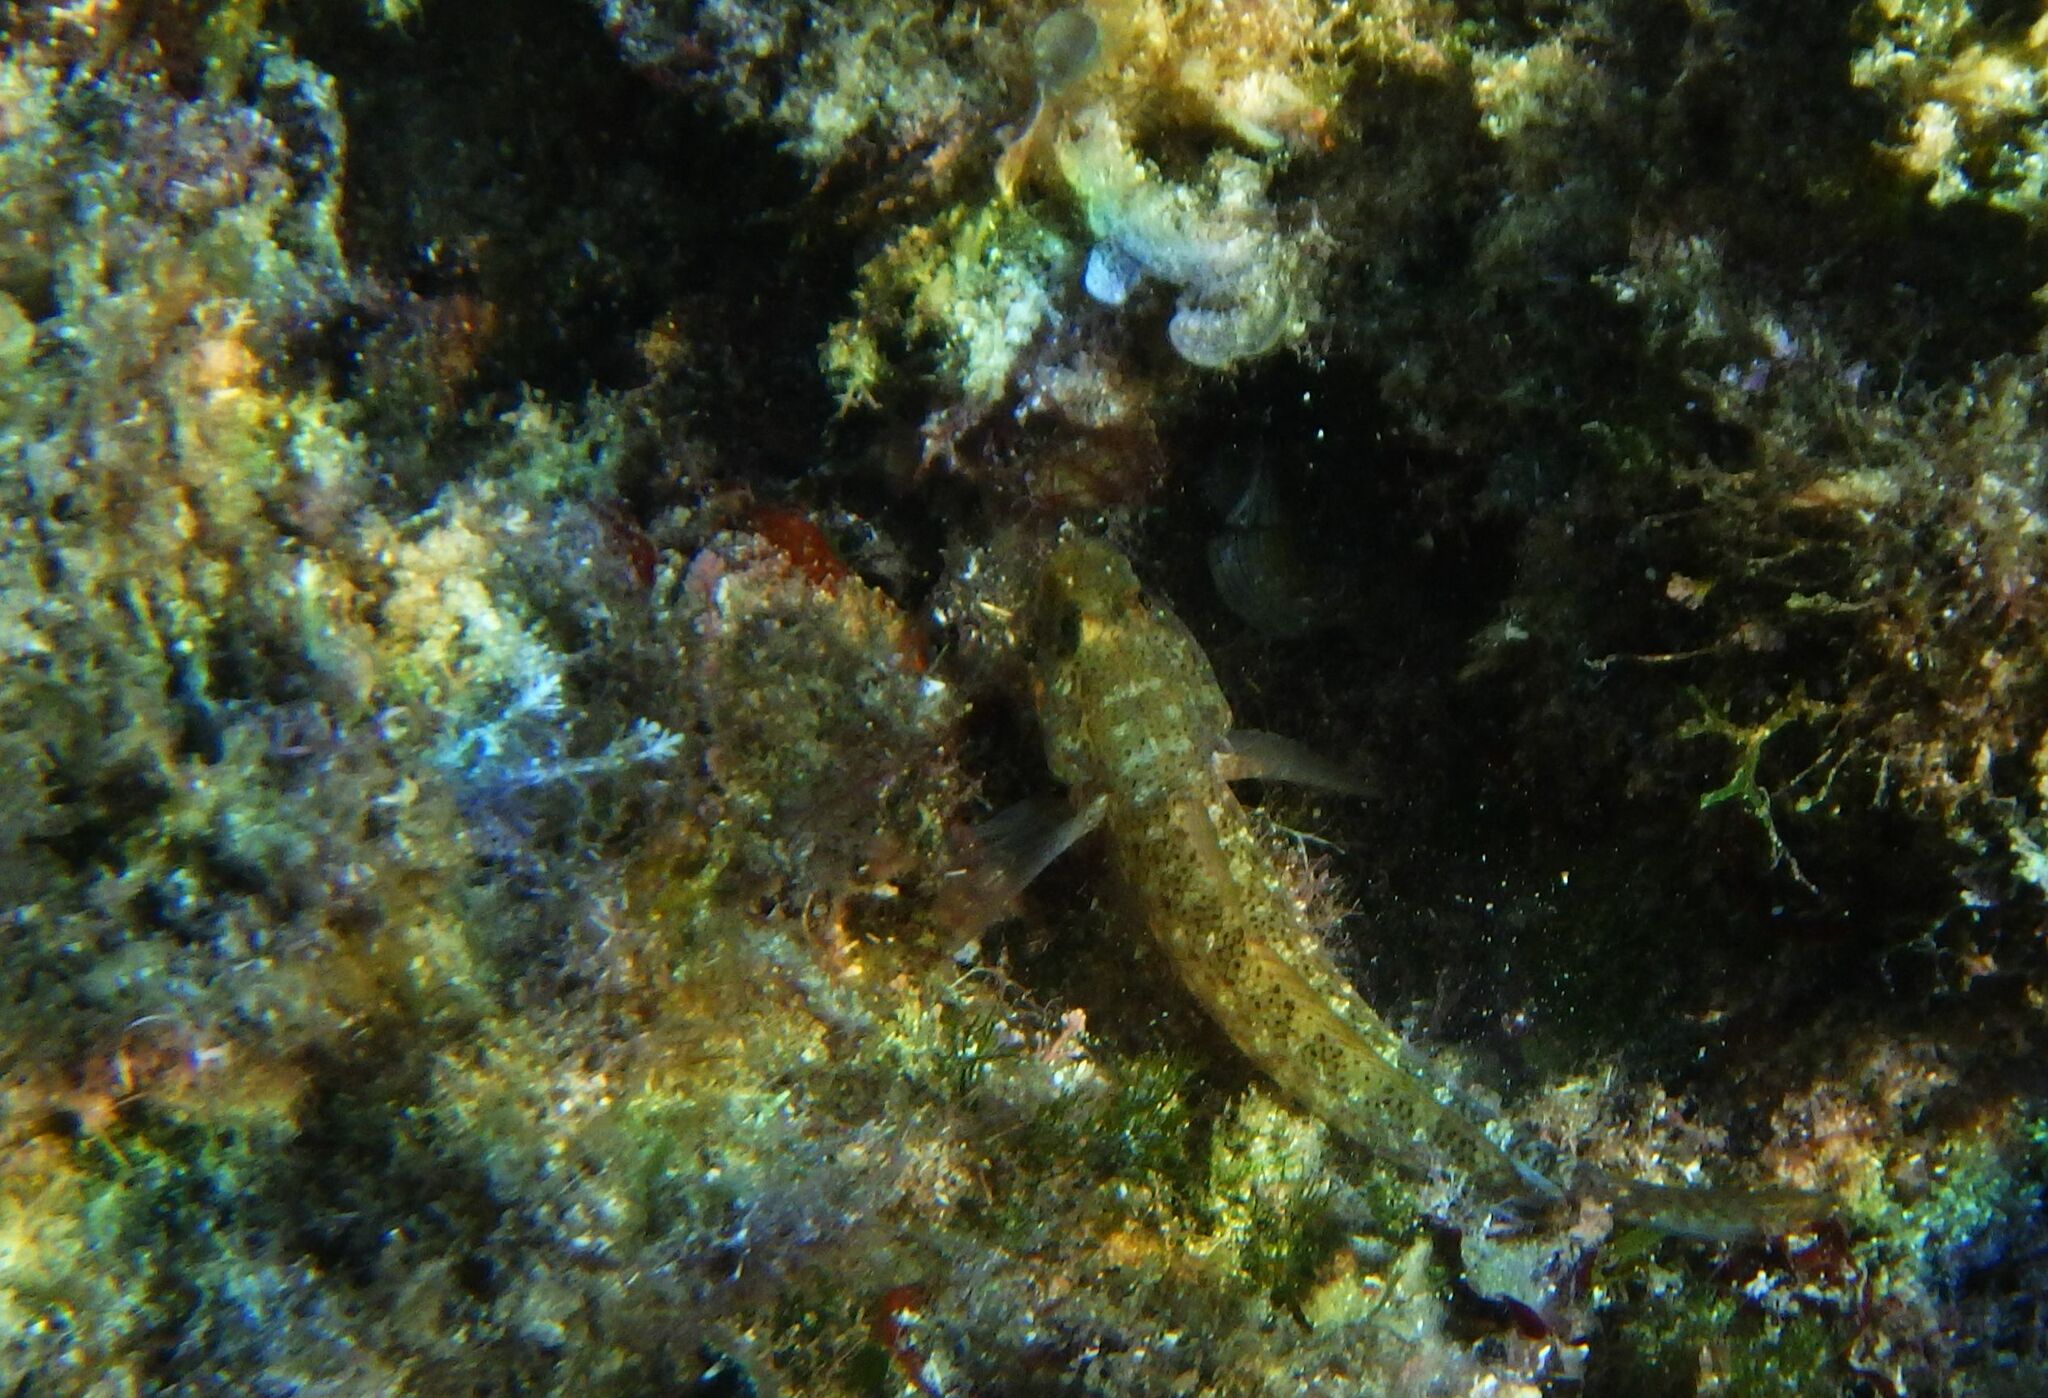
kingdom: Animalia
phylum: Chordata
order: Perciformes
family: Gobiidae
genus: Gobius
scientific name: Gobius incognitus
